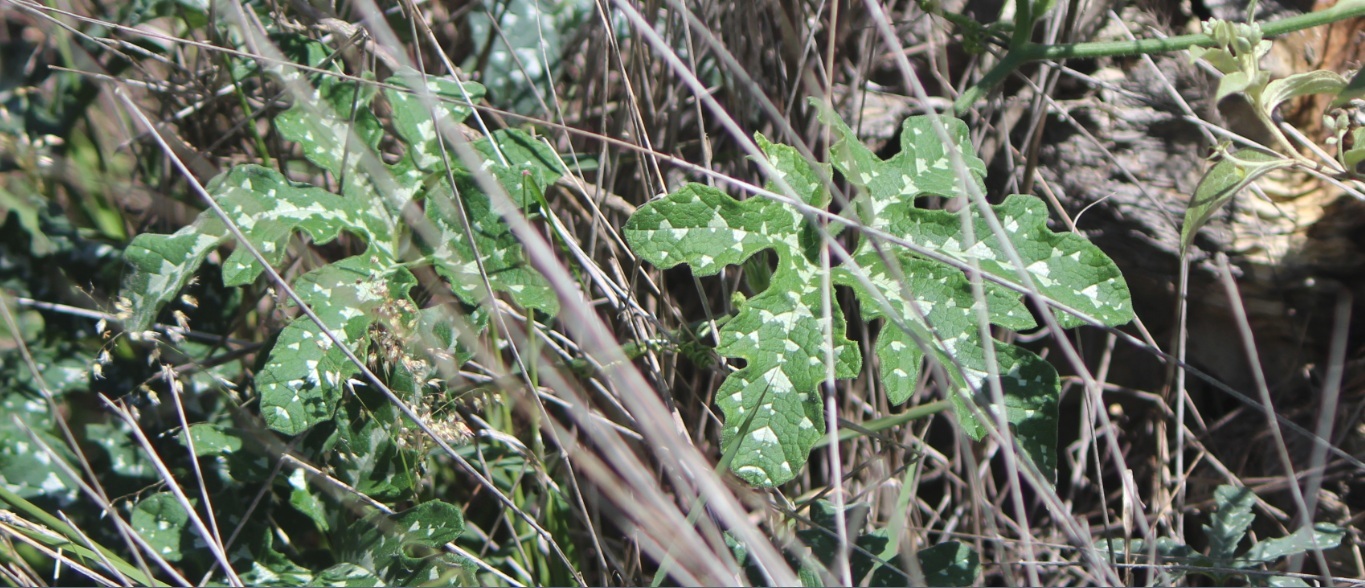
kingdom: Plantae
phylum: Tracheophyta
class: Magnoliopsida
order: Cucurbitales
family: Cucurbitaceae
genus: Cucurbita
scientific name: Cucurbita pedatifolia
